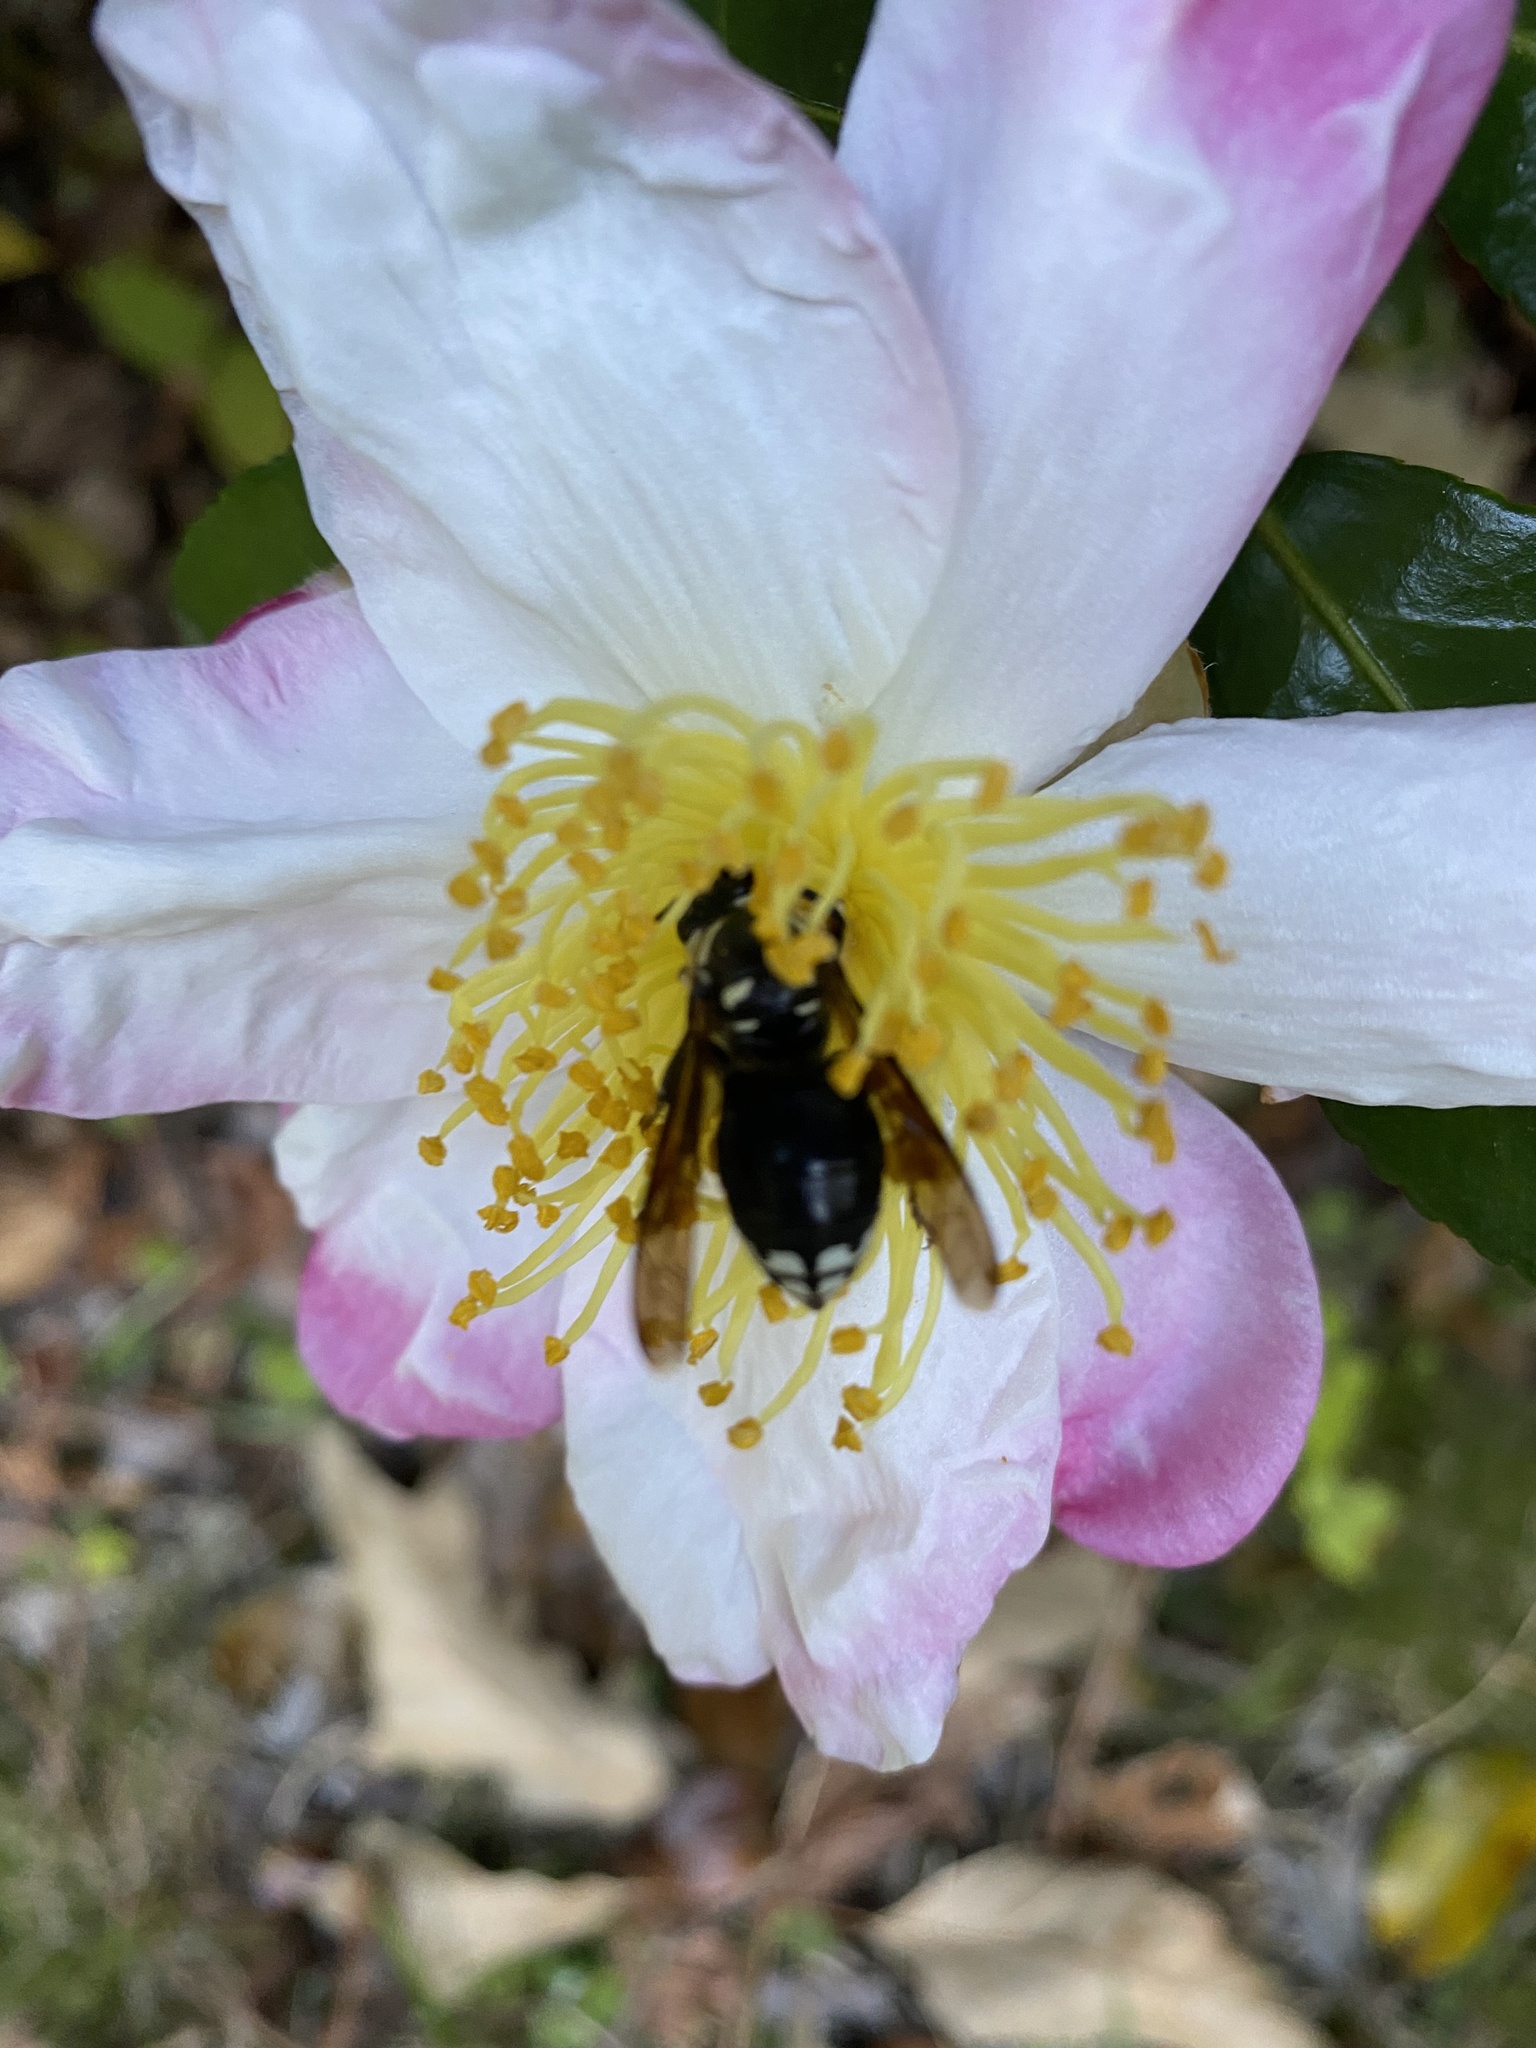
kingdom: Animalia
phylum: Arthropoda
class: Insecta
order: Hymenoptera
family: Vespidae
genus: Dolichovespula
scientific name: Dolichovespula maculata
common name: Bald-faced hornet
